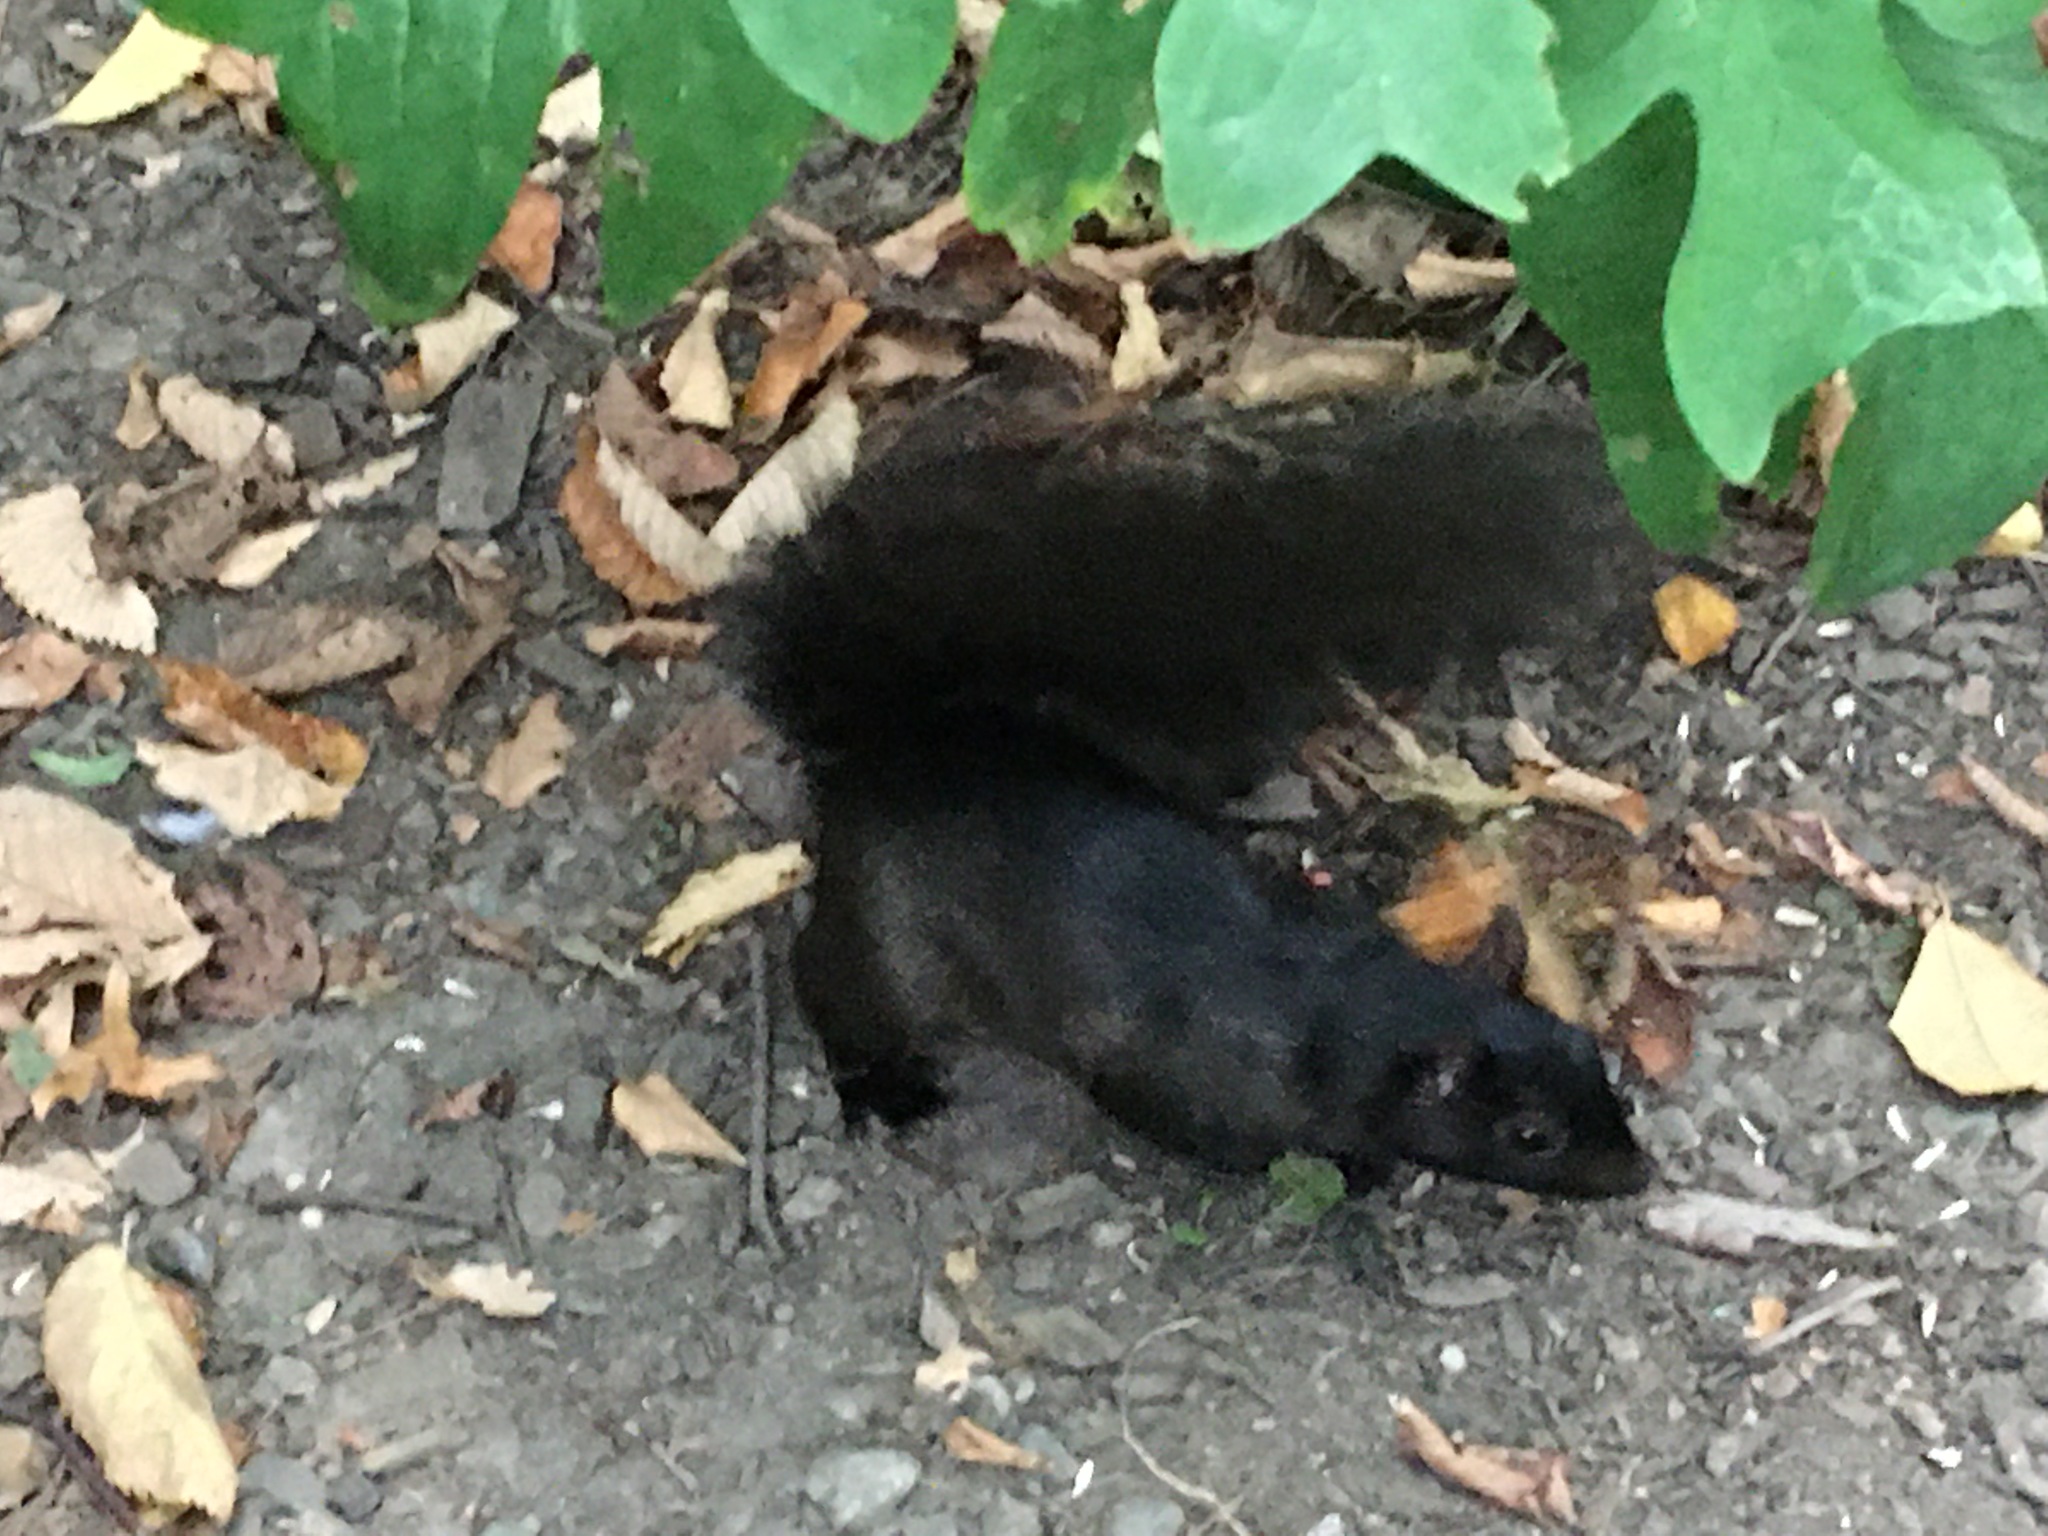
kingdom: Animalia
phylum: Chordata
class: Mammalia
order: Rodentia
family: Sciuridae
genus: Sciurus
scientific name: Sciurus carolinensis
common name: Eastern gray squirrel
